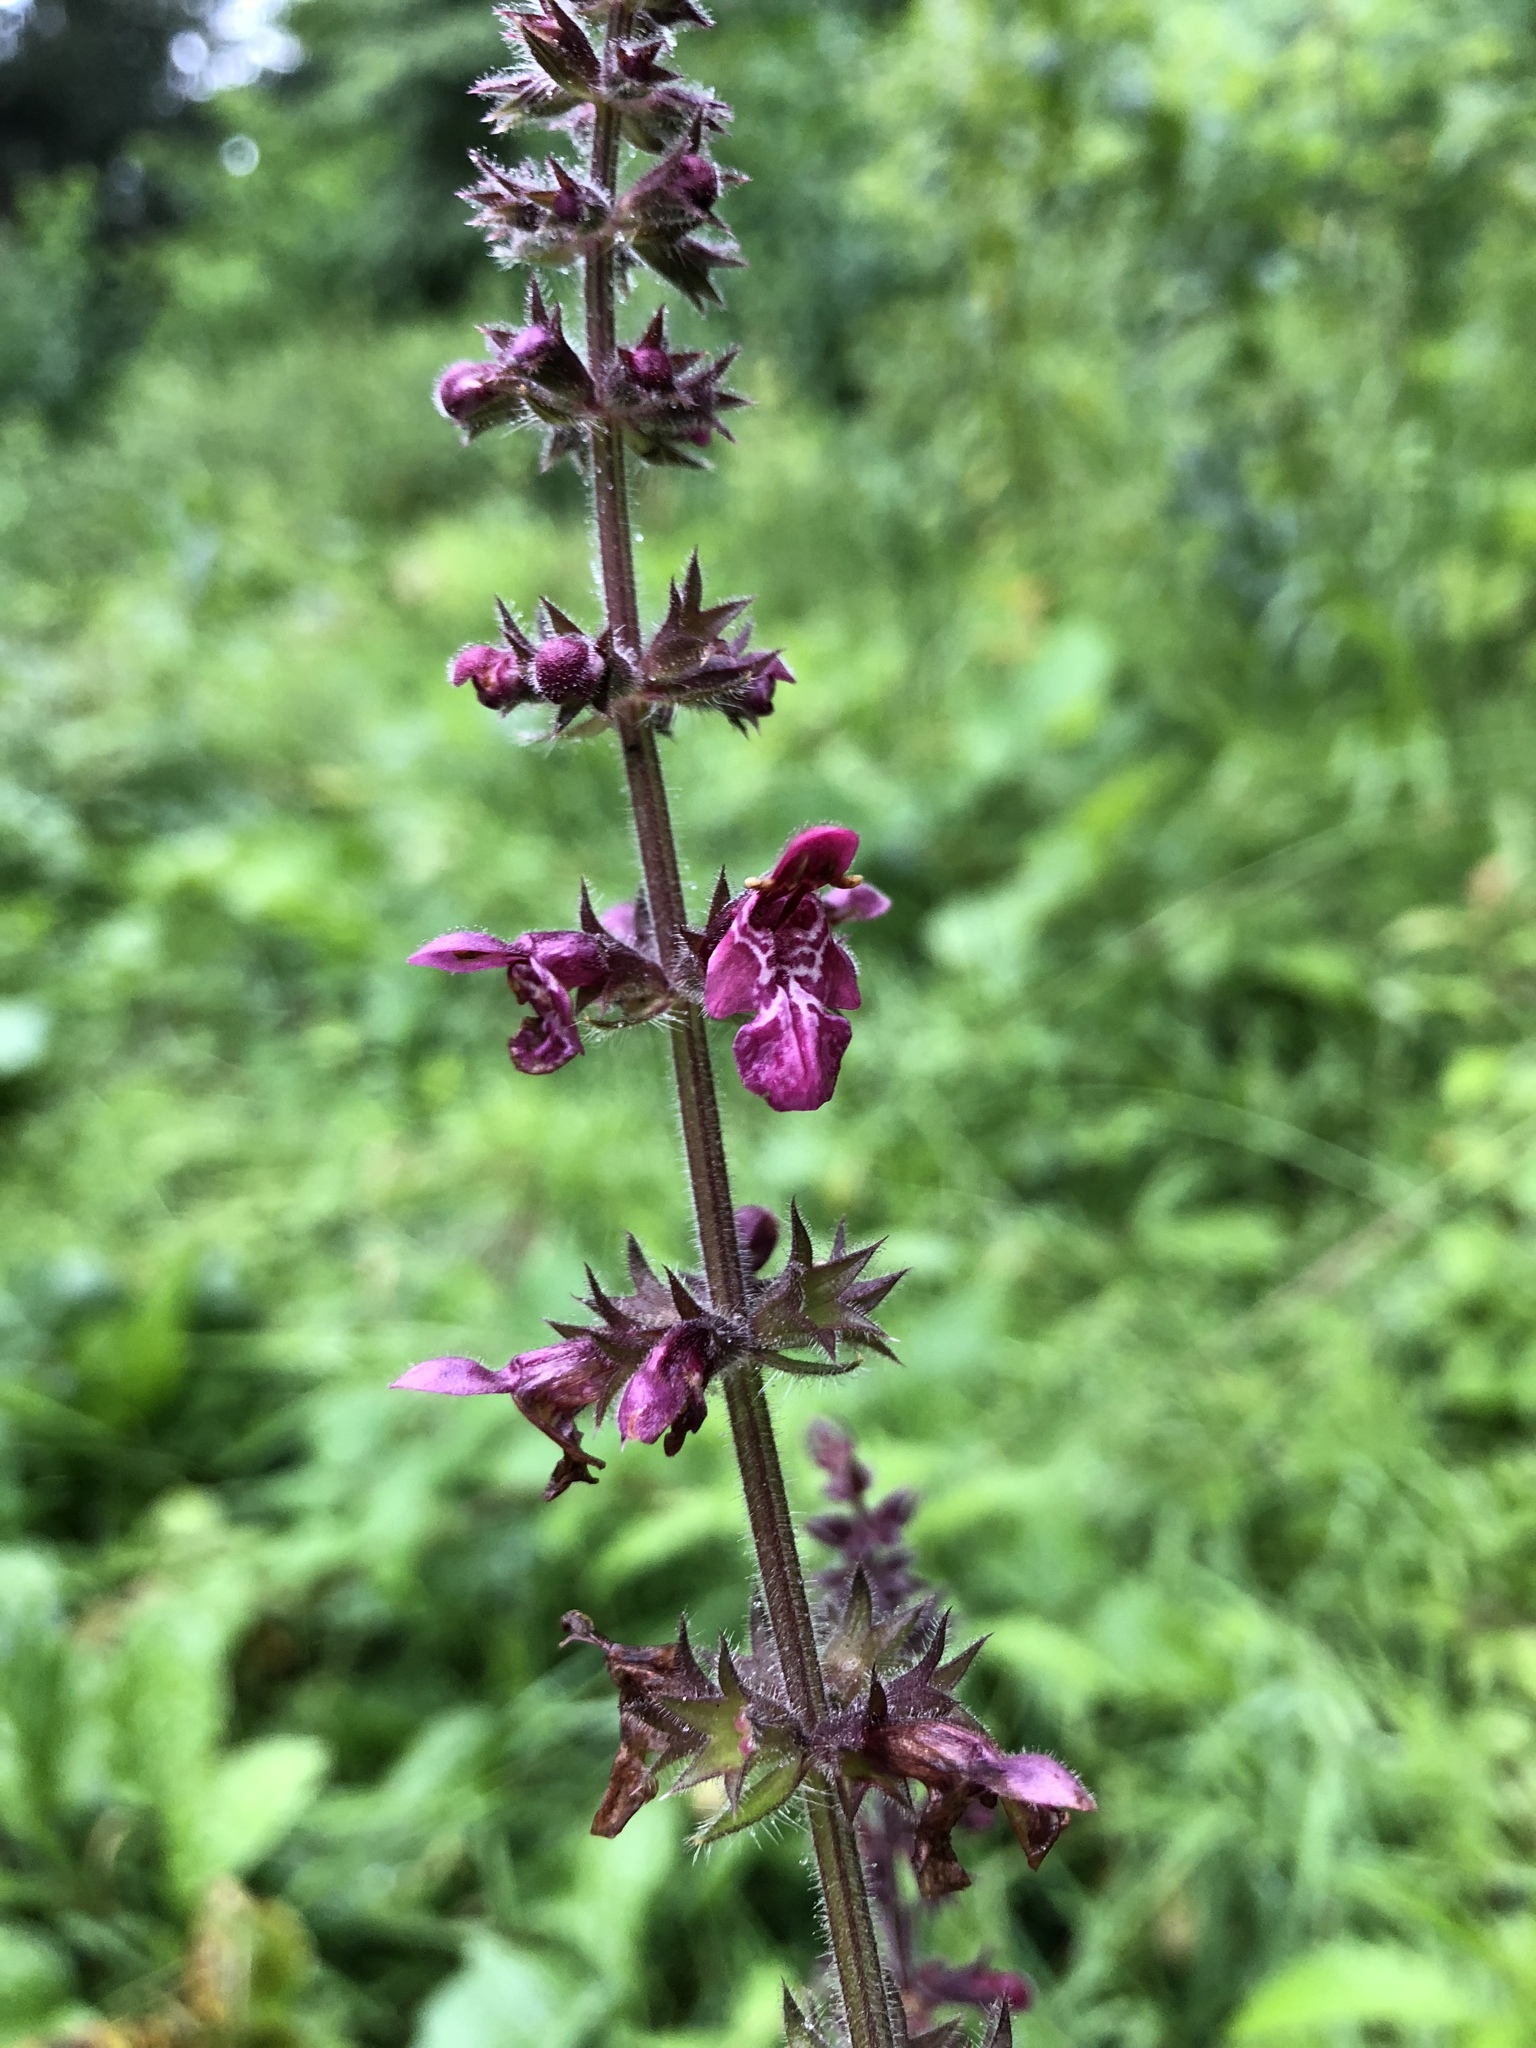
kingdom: Plantae
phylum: Tracheophyta
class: Magnoliopsida
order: Lamiales
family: Lamiaceae
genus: Stachys
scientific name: Stachys sylvatica
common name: Hedge woundwort
